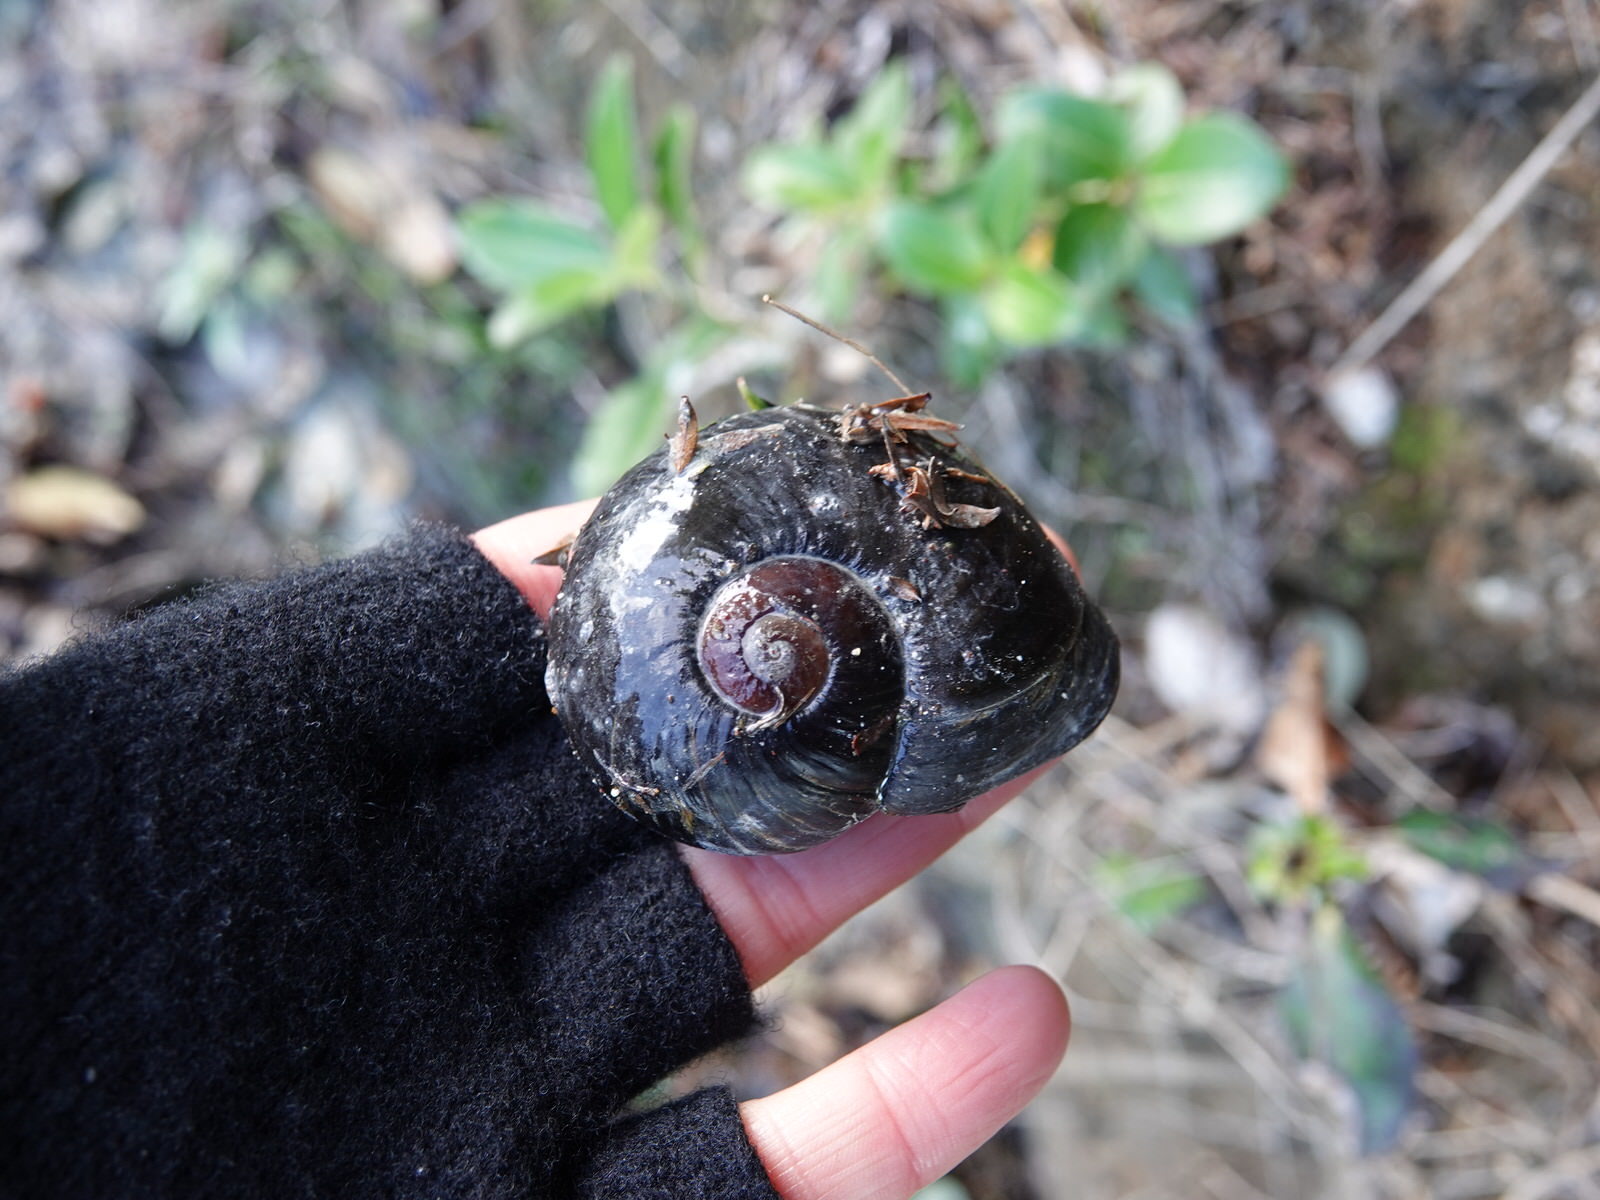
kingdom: Animalia
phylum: Mollusca
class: Gastropoda
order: Stylommatophora
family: Rhytididae
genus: Paryphanta
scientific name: Paryphanta busbyi
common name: Kauri snail
